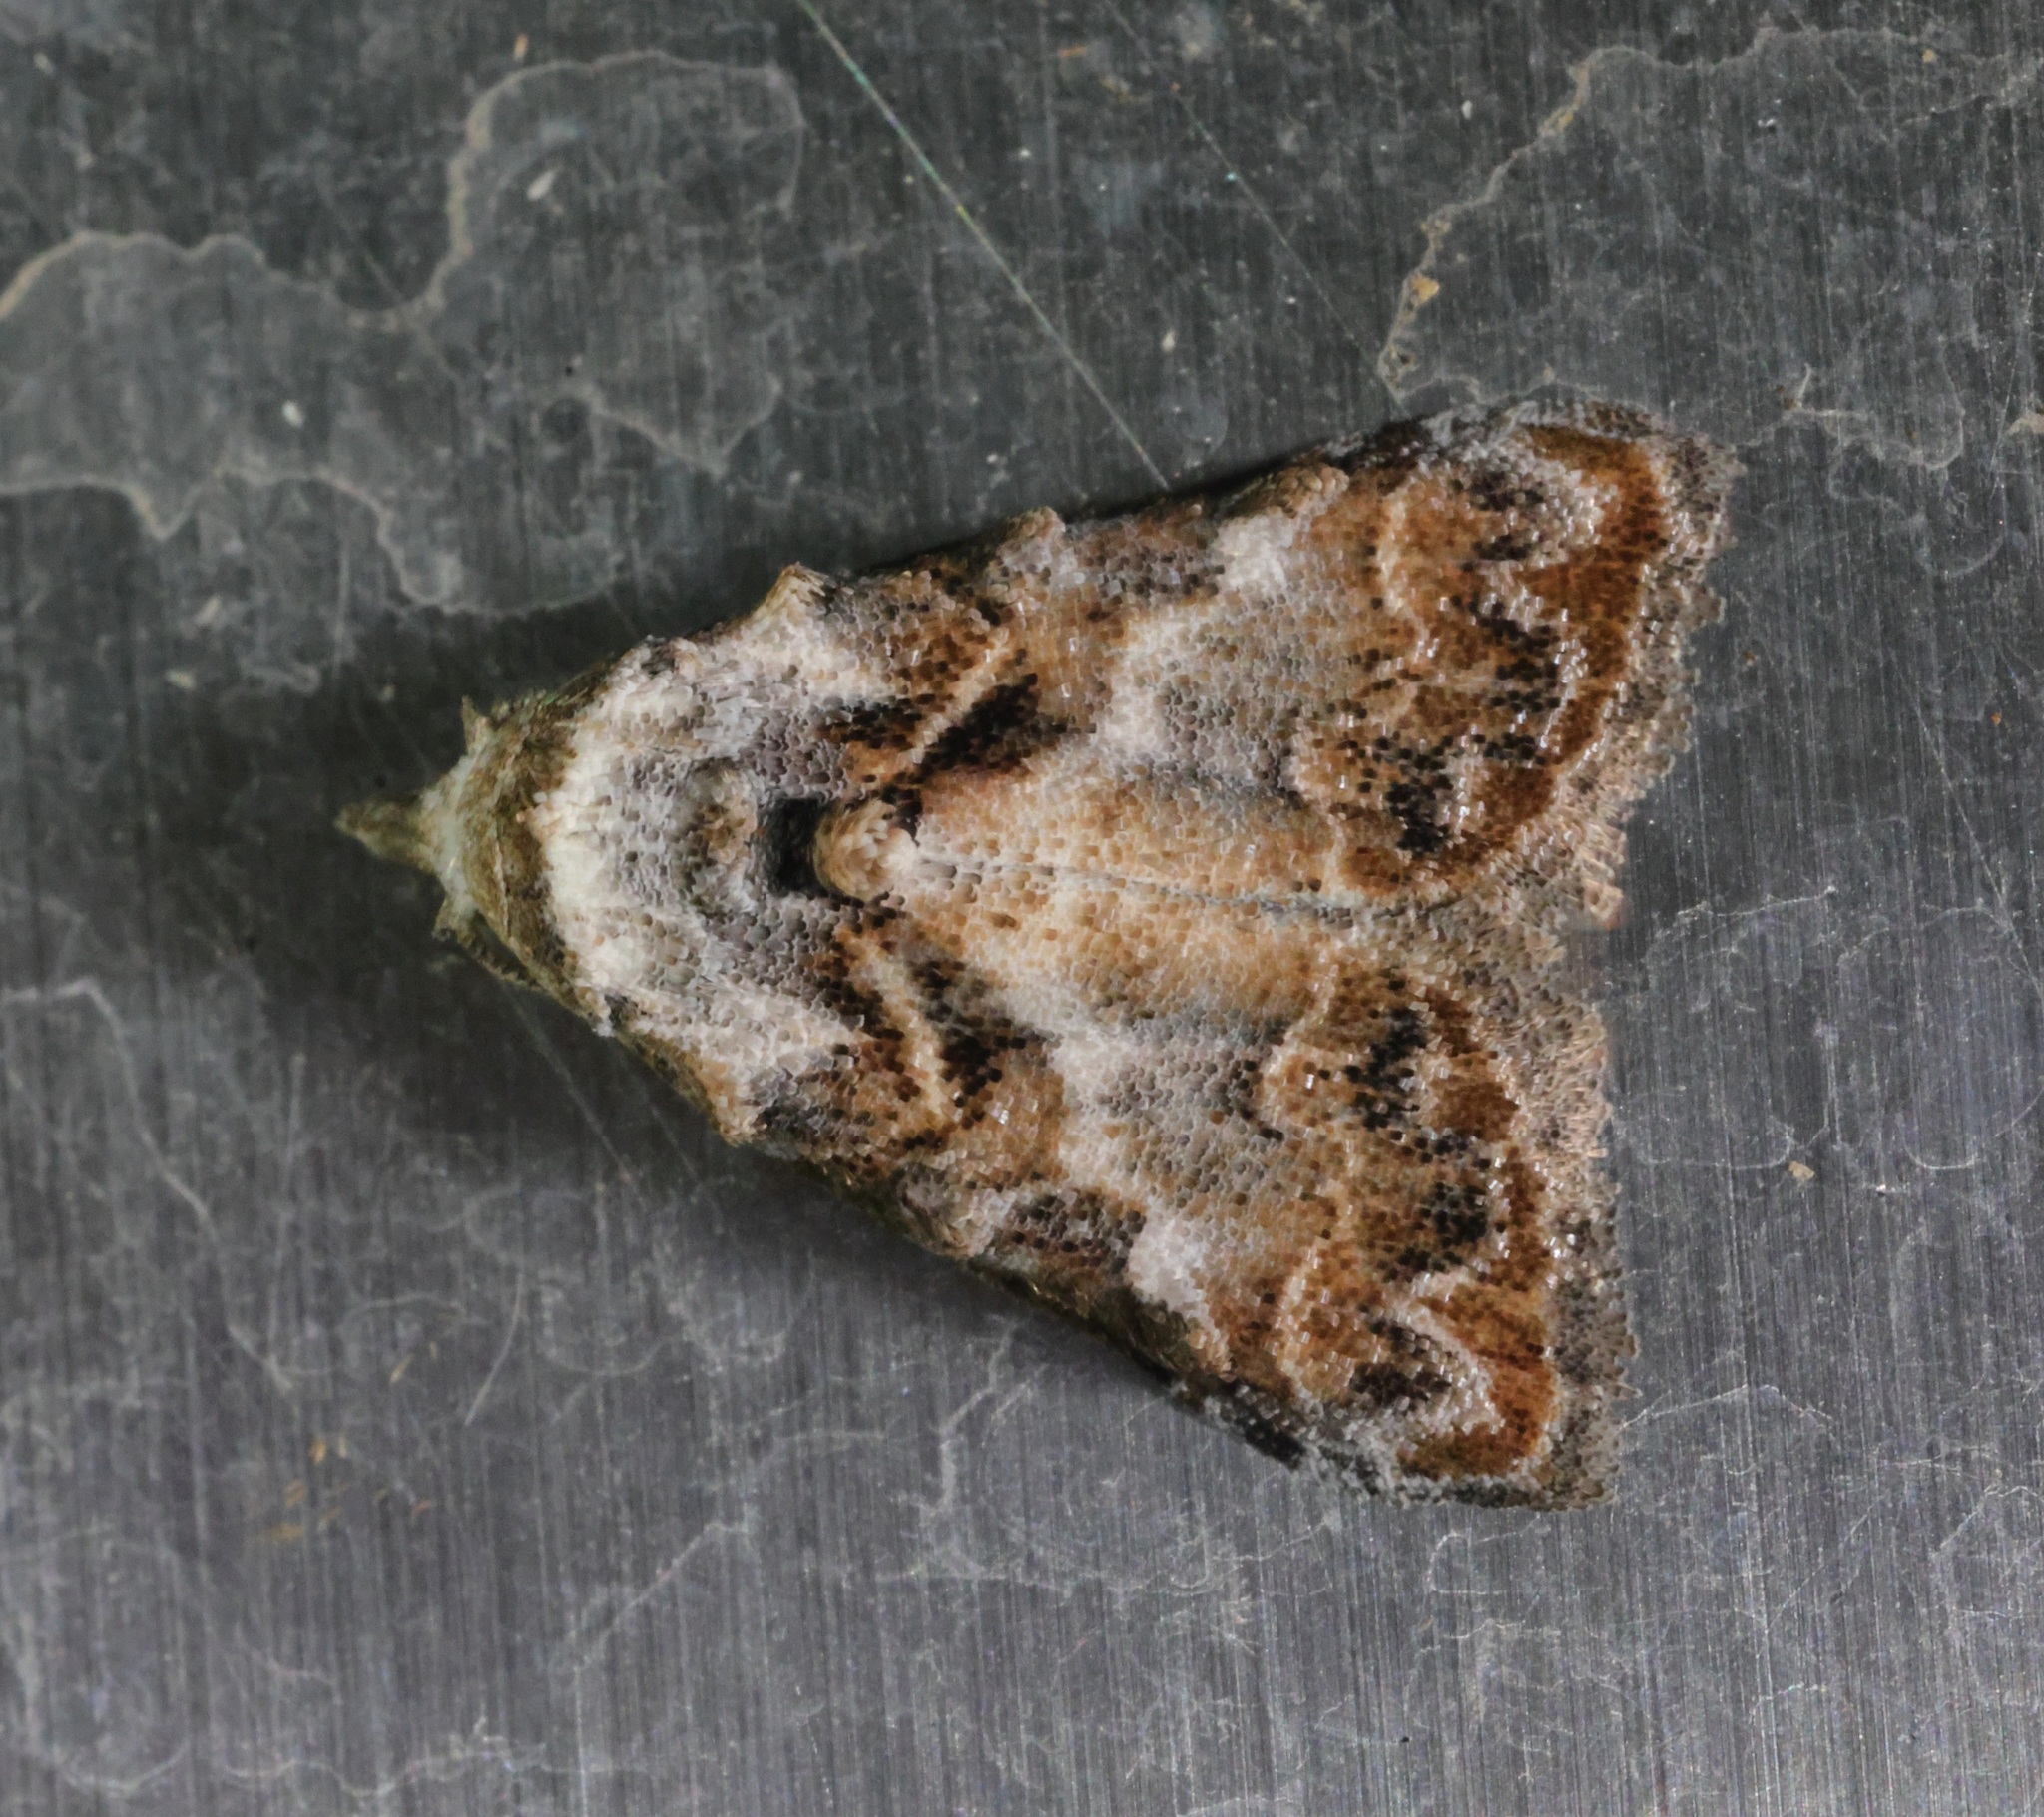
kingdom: Animalia
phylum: Arthropoda
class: Insecta
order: Lepidoptera
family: Nolidae
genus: Nola
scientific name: Nola kanshireiensis
